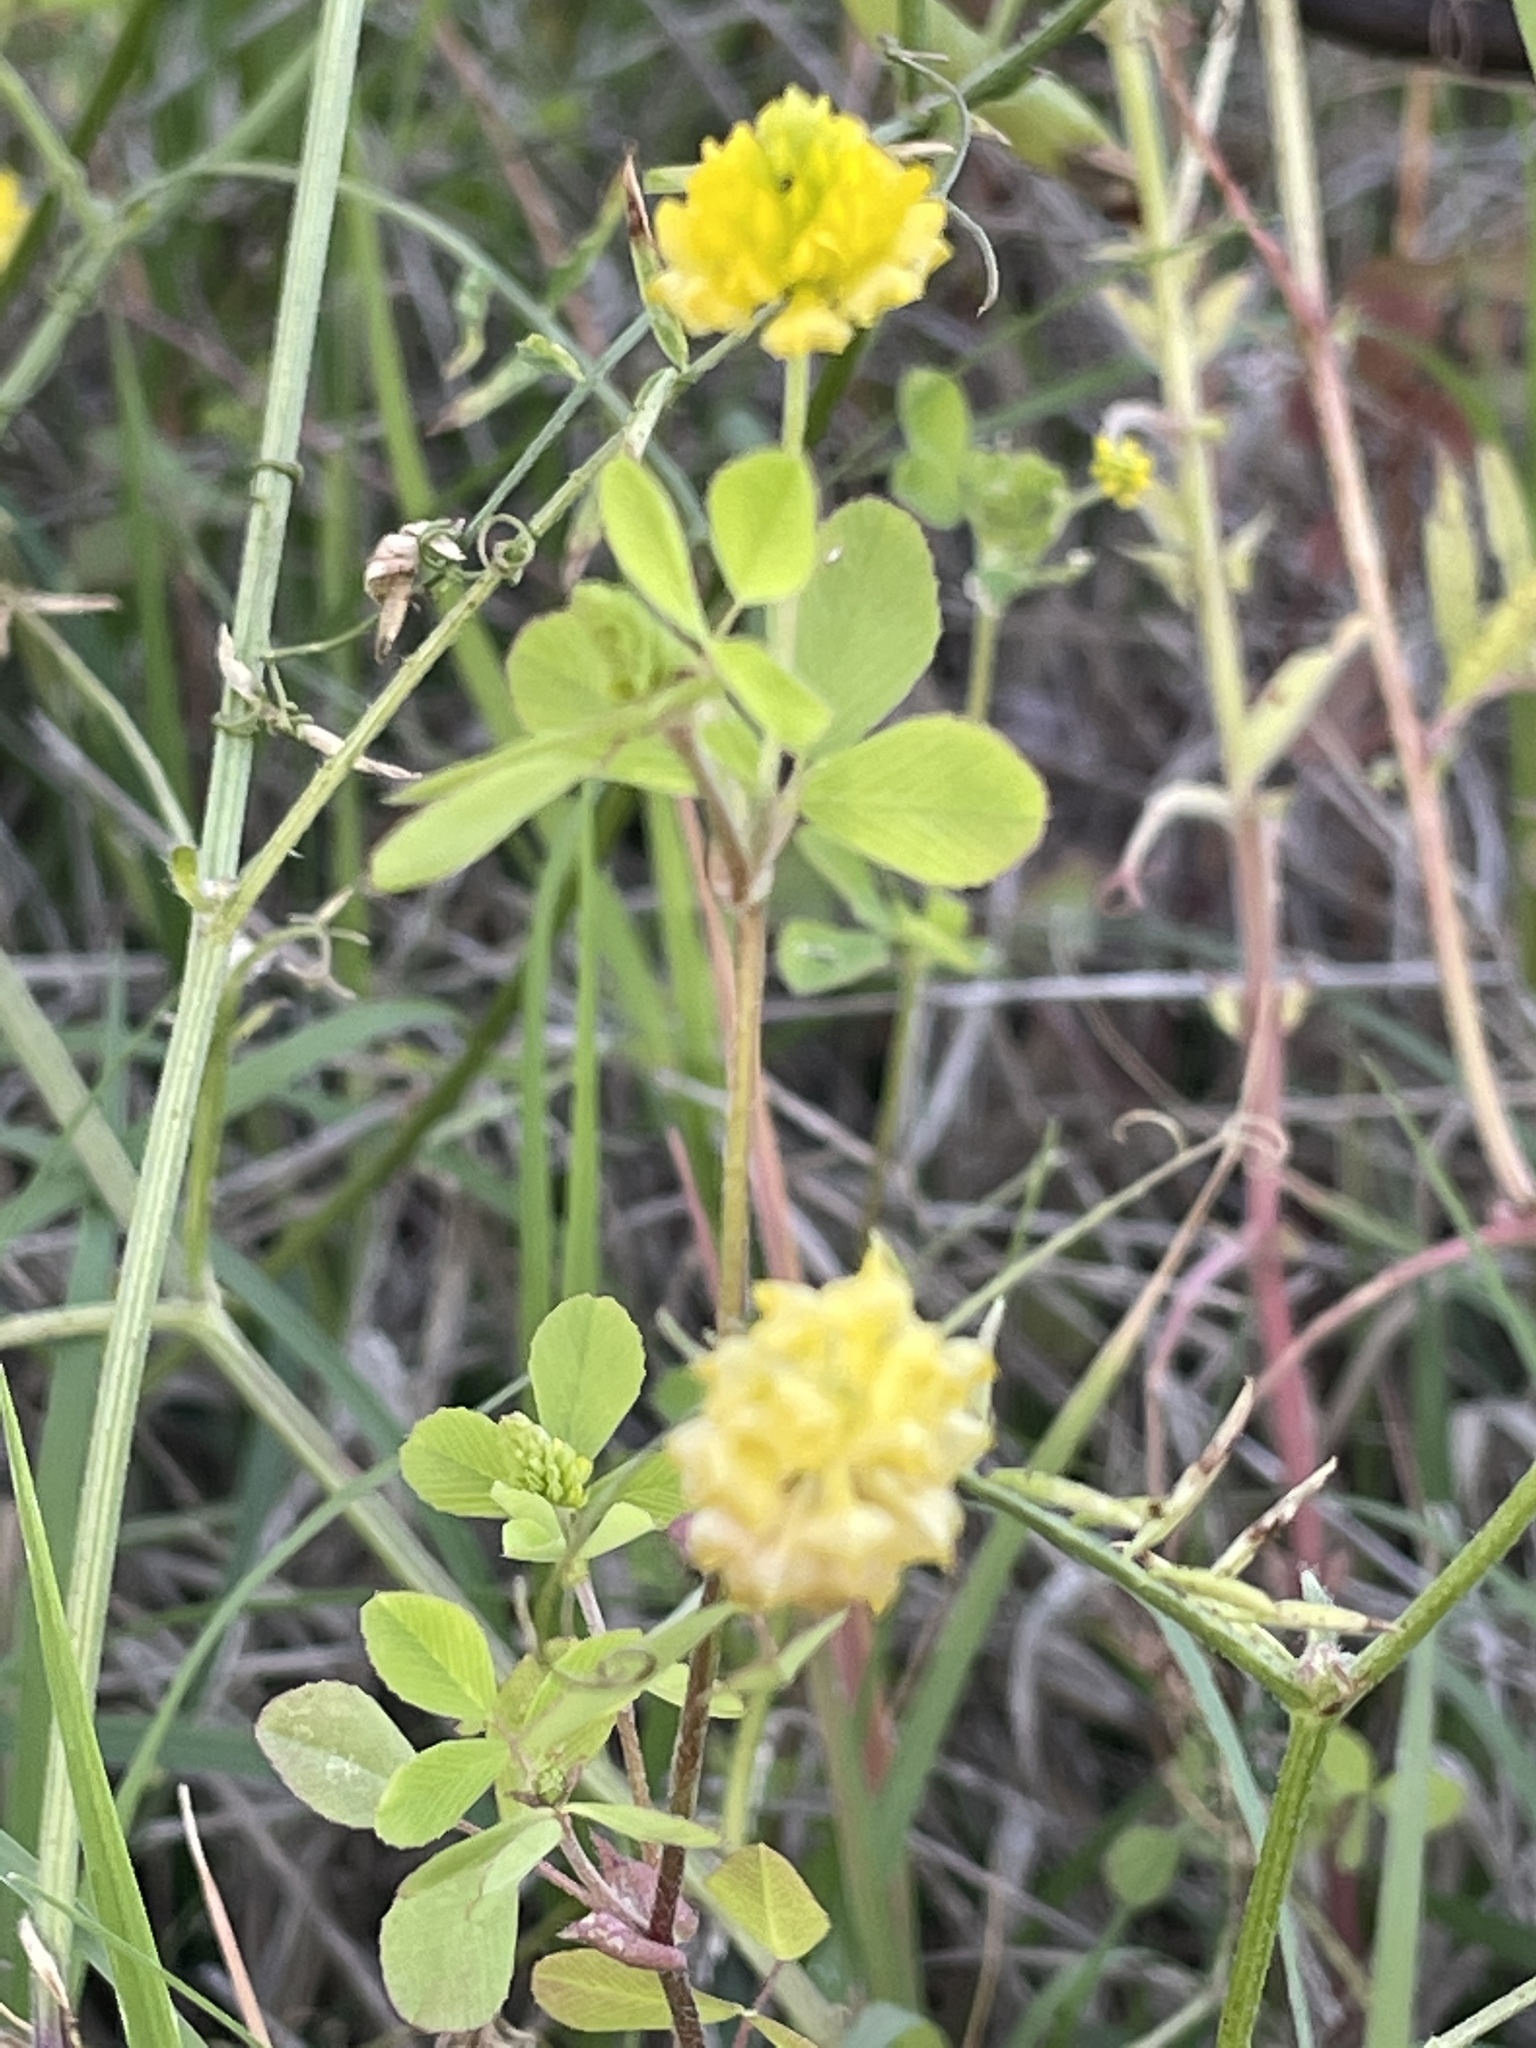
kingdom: Plantae
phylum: Tracheophyta
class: Magnoliopsida
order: Fabales
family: Fabaceae
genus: Trifolium
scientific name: Trifolium campestre
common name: Field clover
